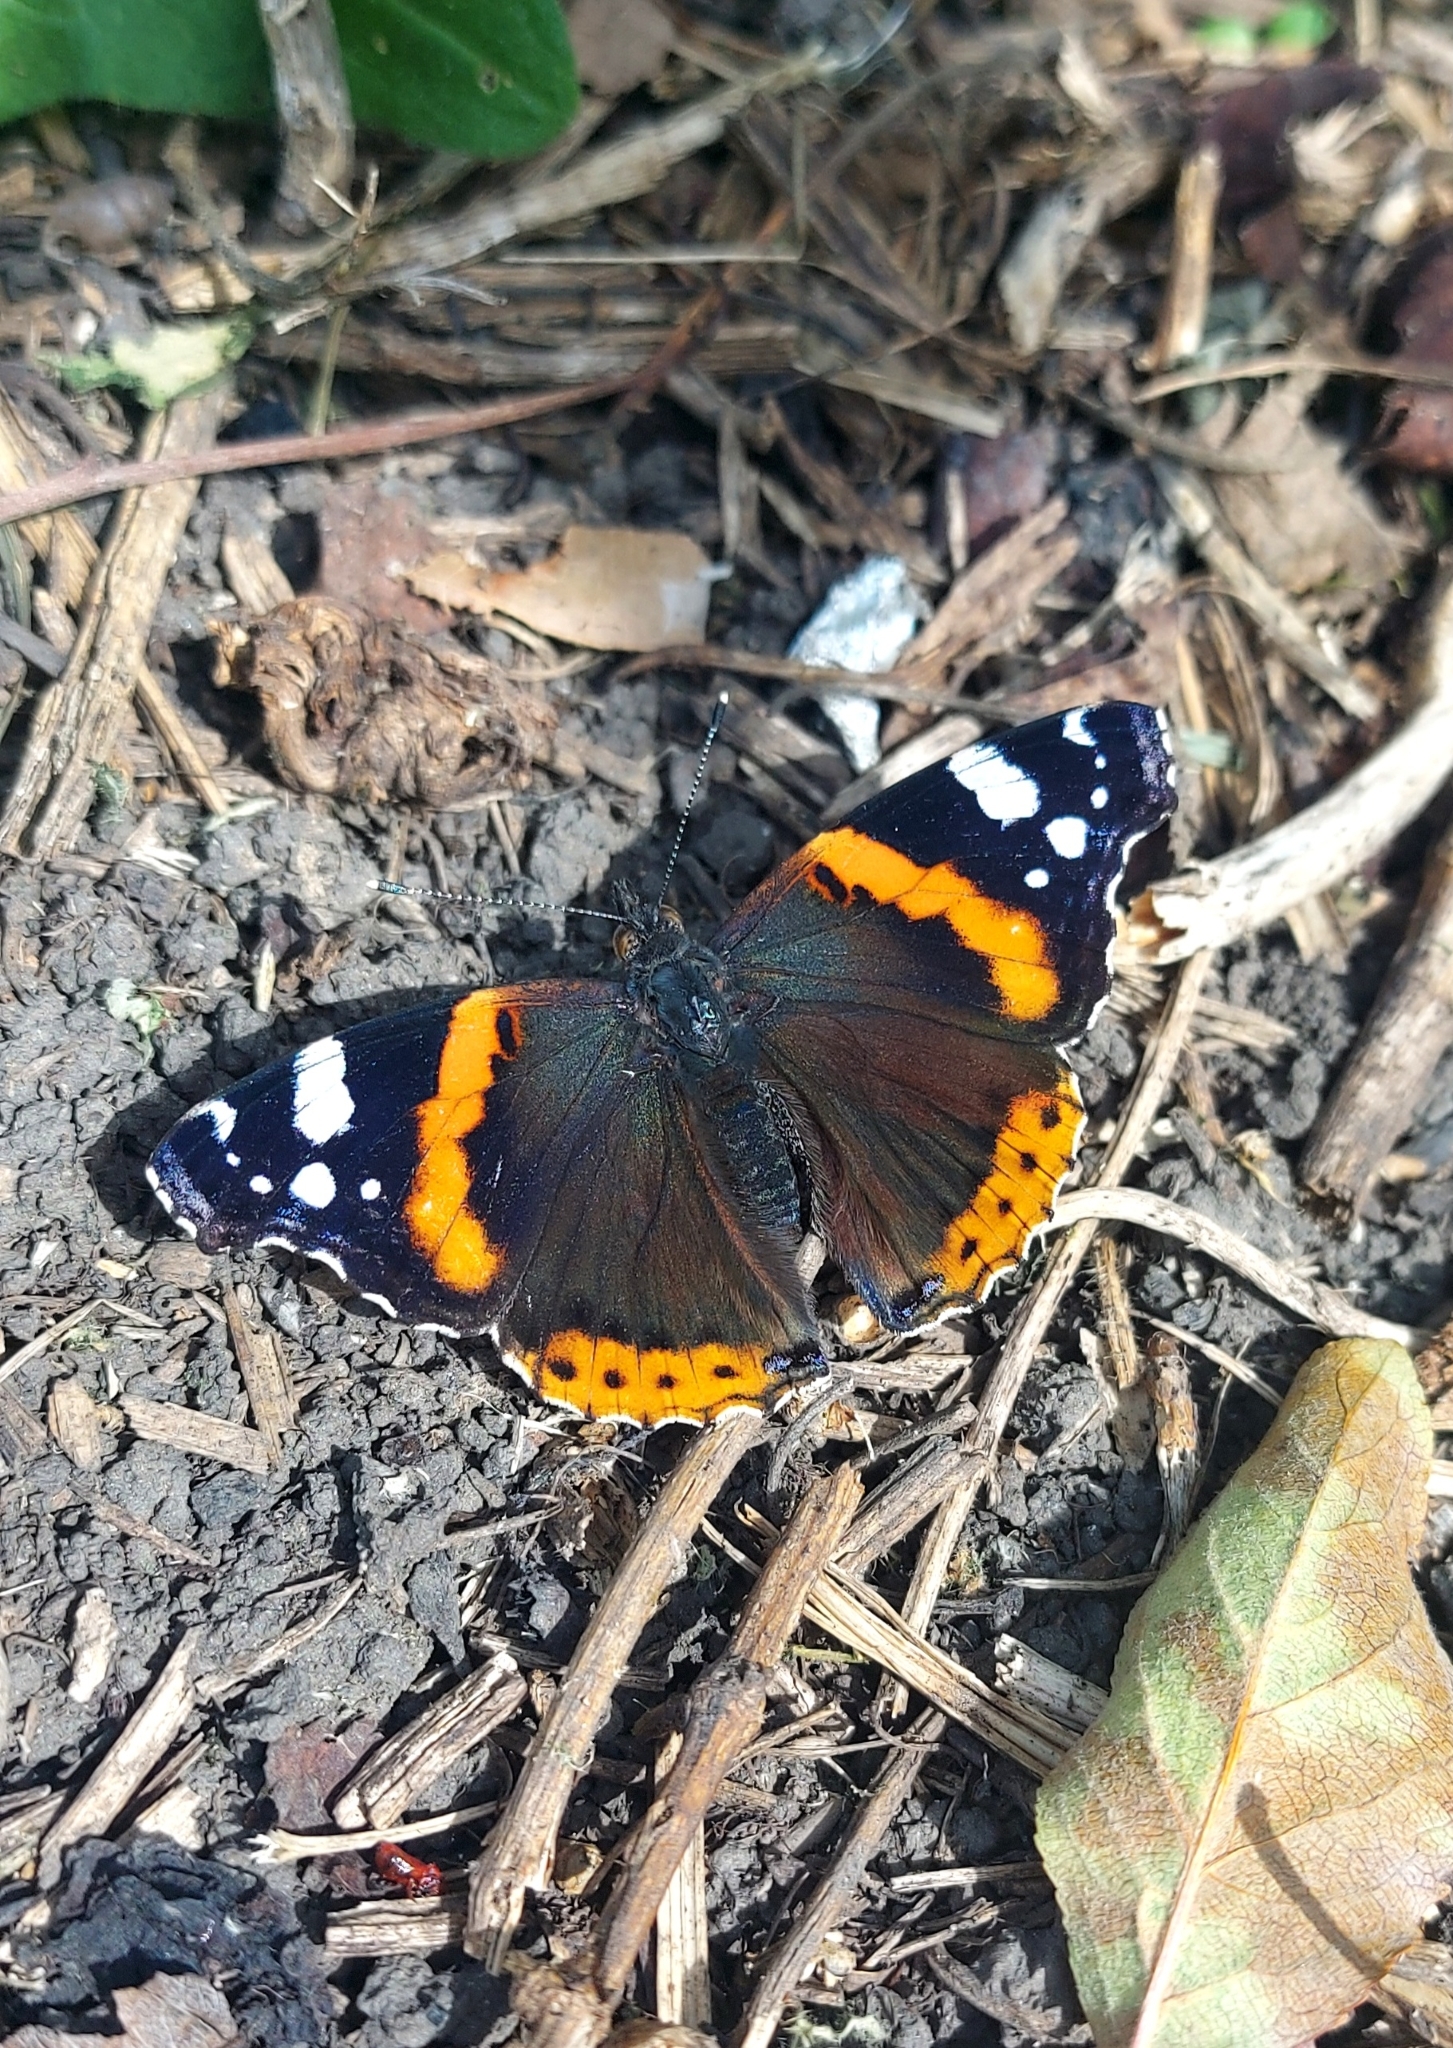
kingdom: Animalia
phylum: Arthropoda
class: Insecta
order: Lepidoptera
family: Nymphalidae
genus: Vanessa
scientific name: Vanessa atalanta
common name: Red admiral
